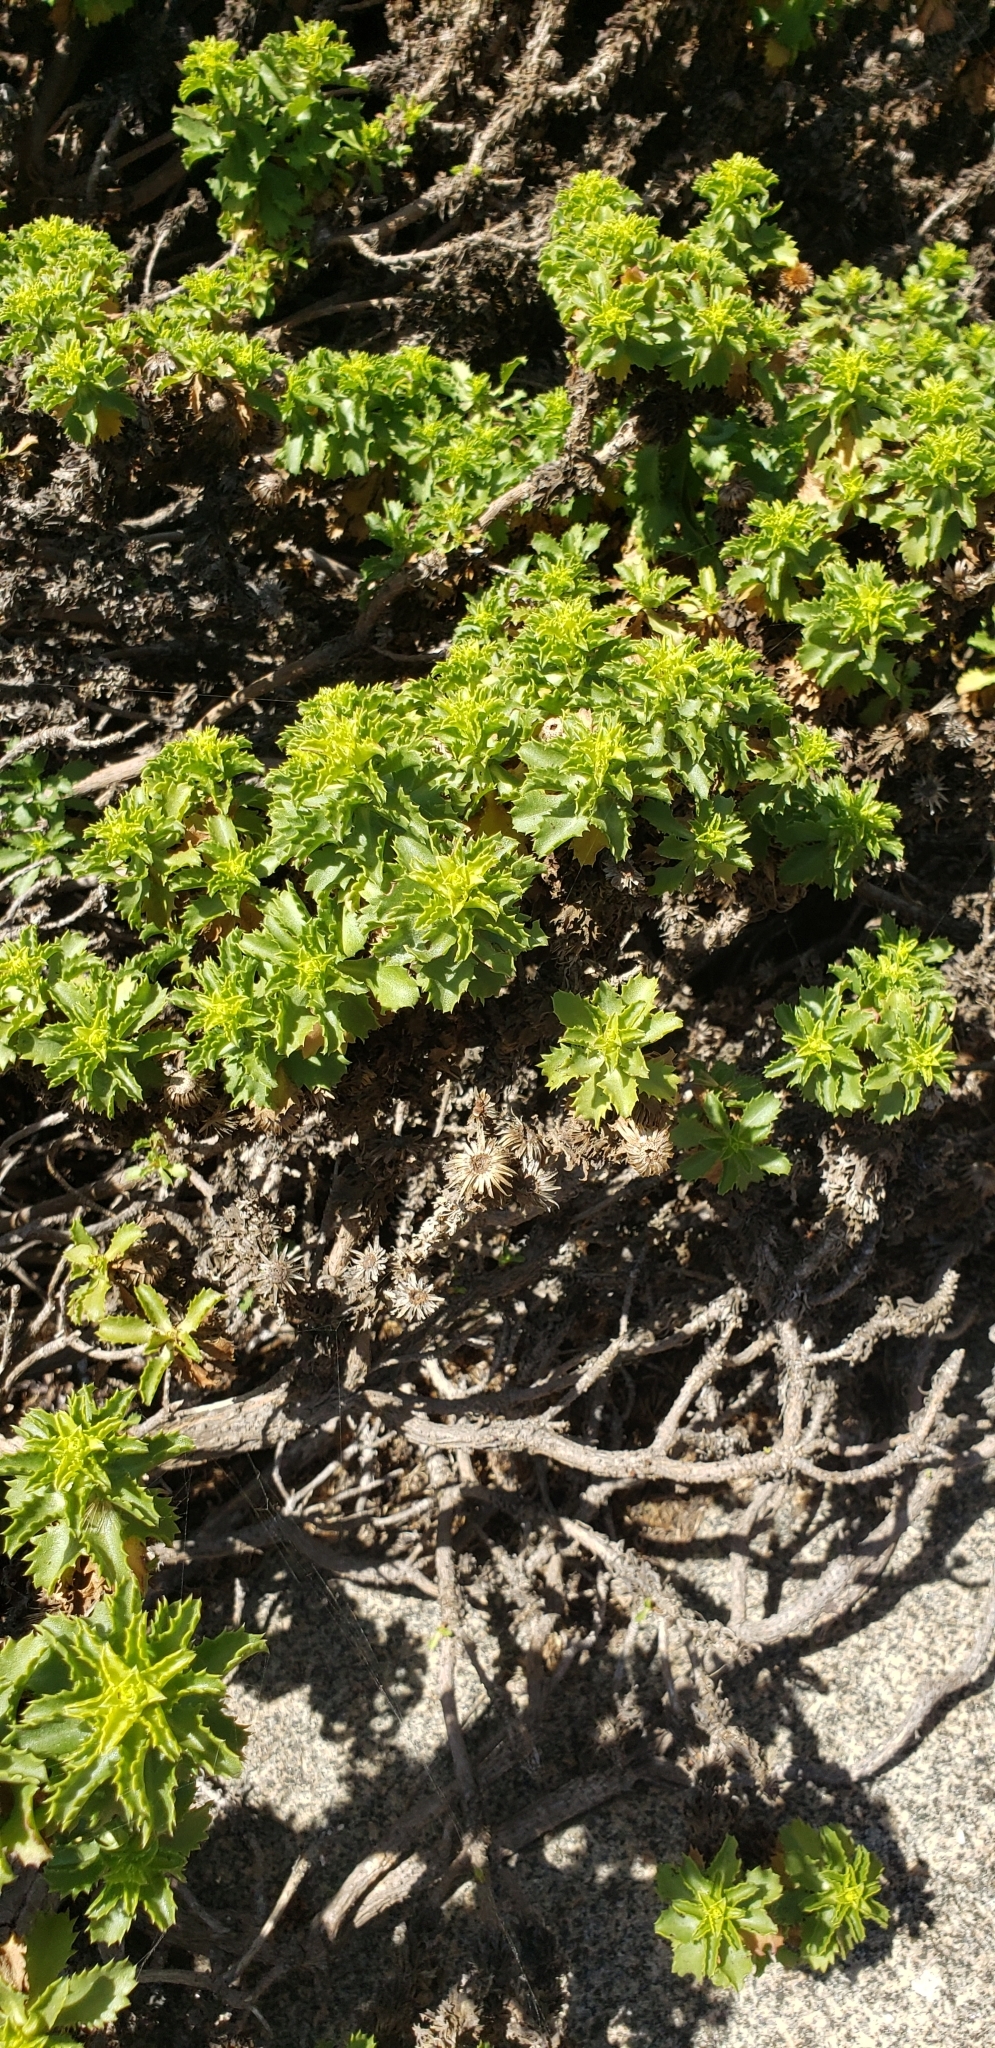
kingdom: Plantae
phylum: Tracheophyta
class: Magnoliopsida
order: Asterales
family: Asteraceae
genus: Haplopappus
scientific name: Haplopappus foliosus
